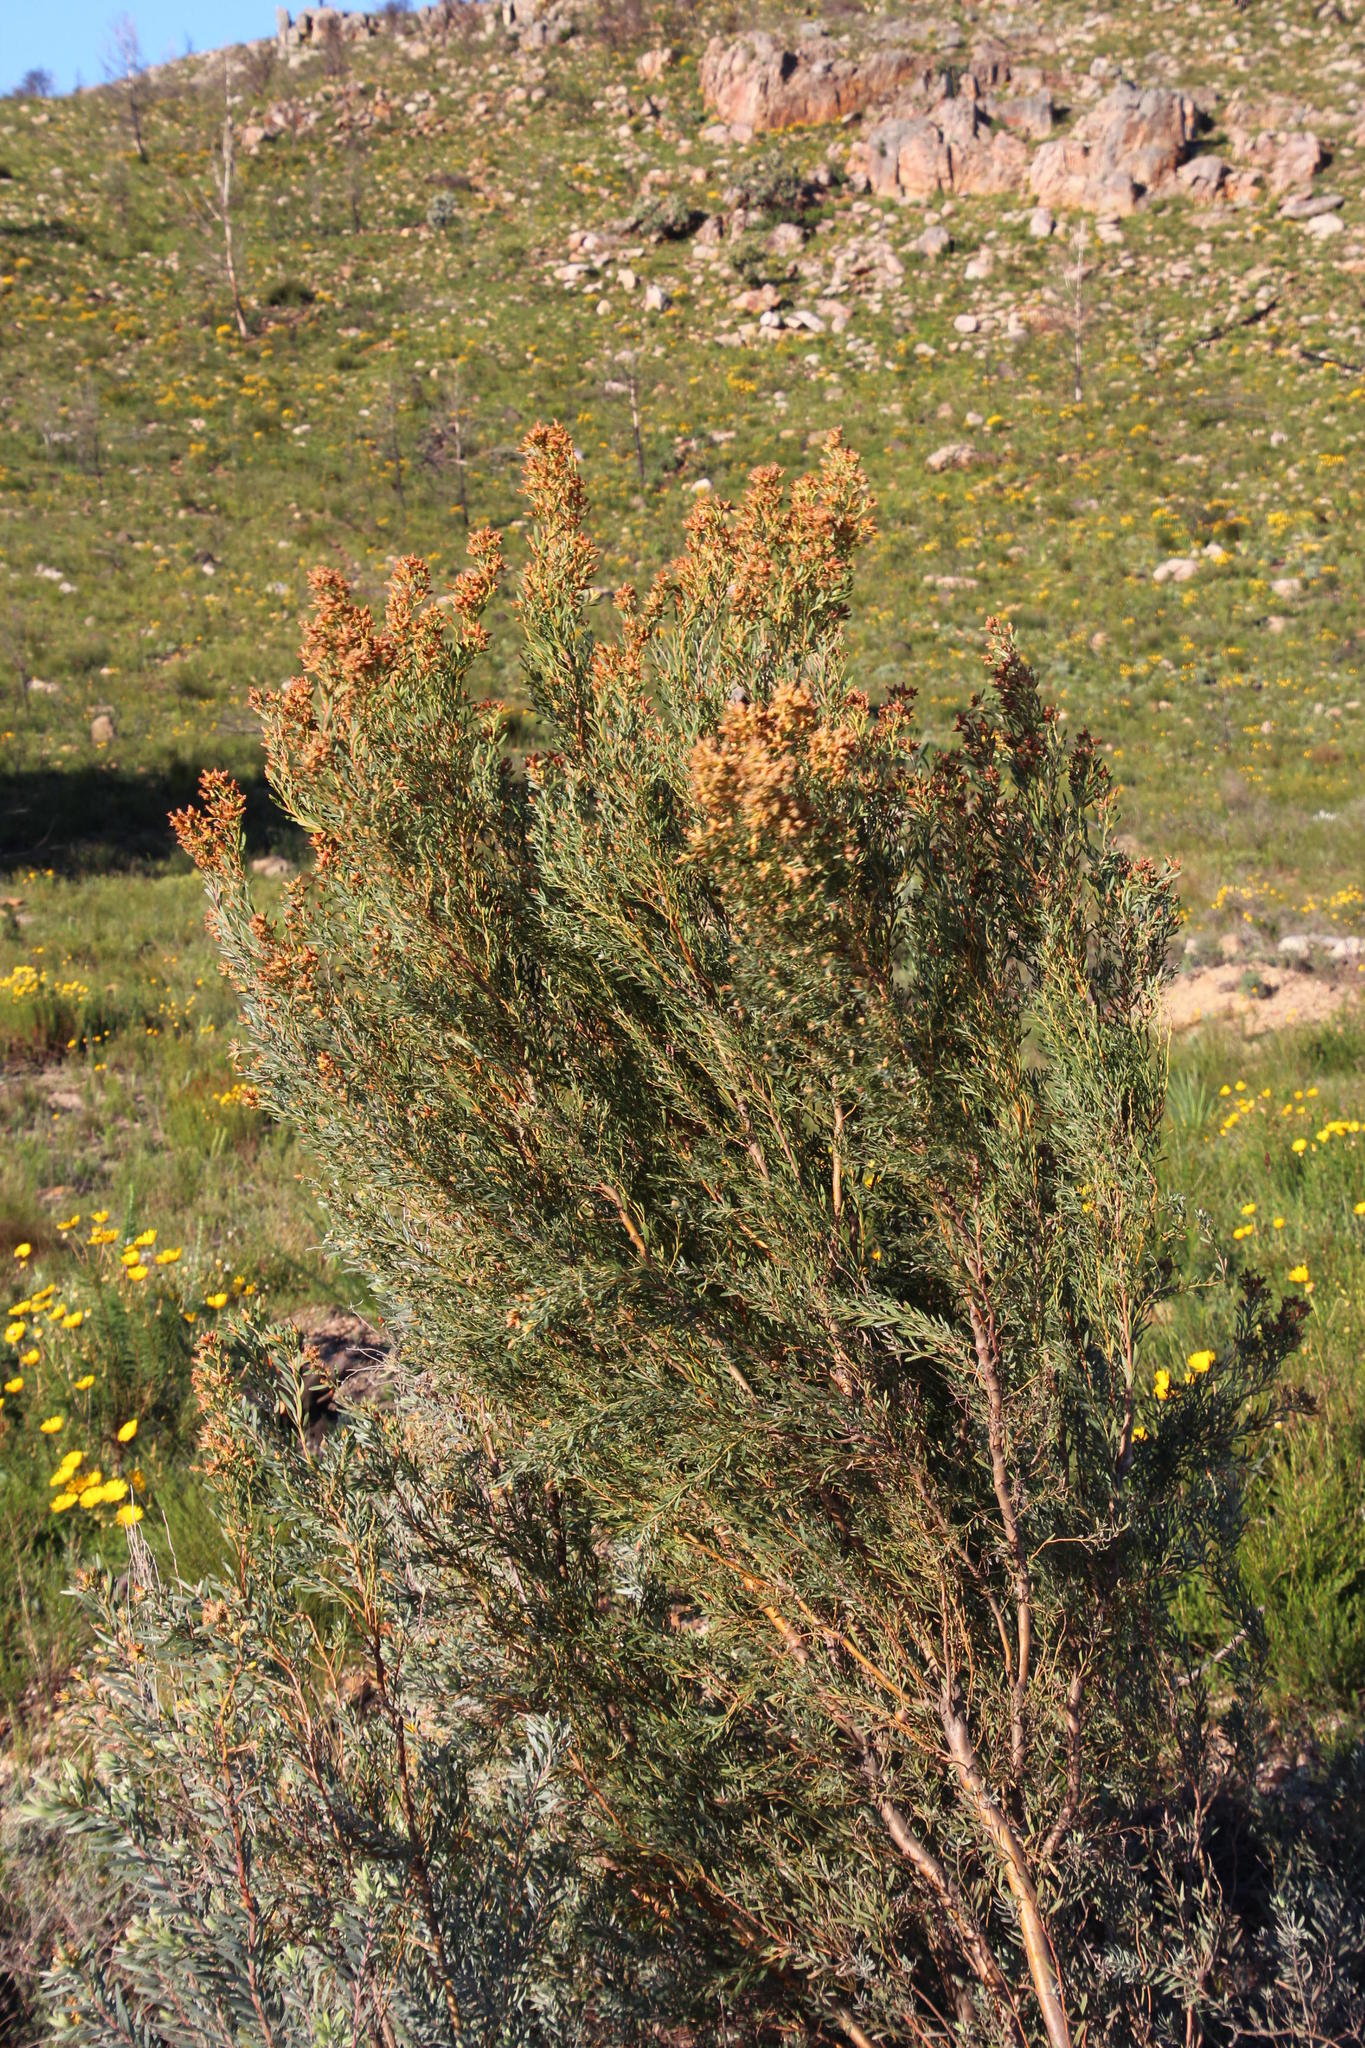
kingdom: Plantae
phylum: Tracheophyta
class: Magnoliopsida
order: Proteales
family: Proteaceae
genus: Leucadendron
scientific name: Leucadendron rubrum
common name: Spinning top
